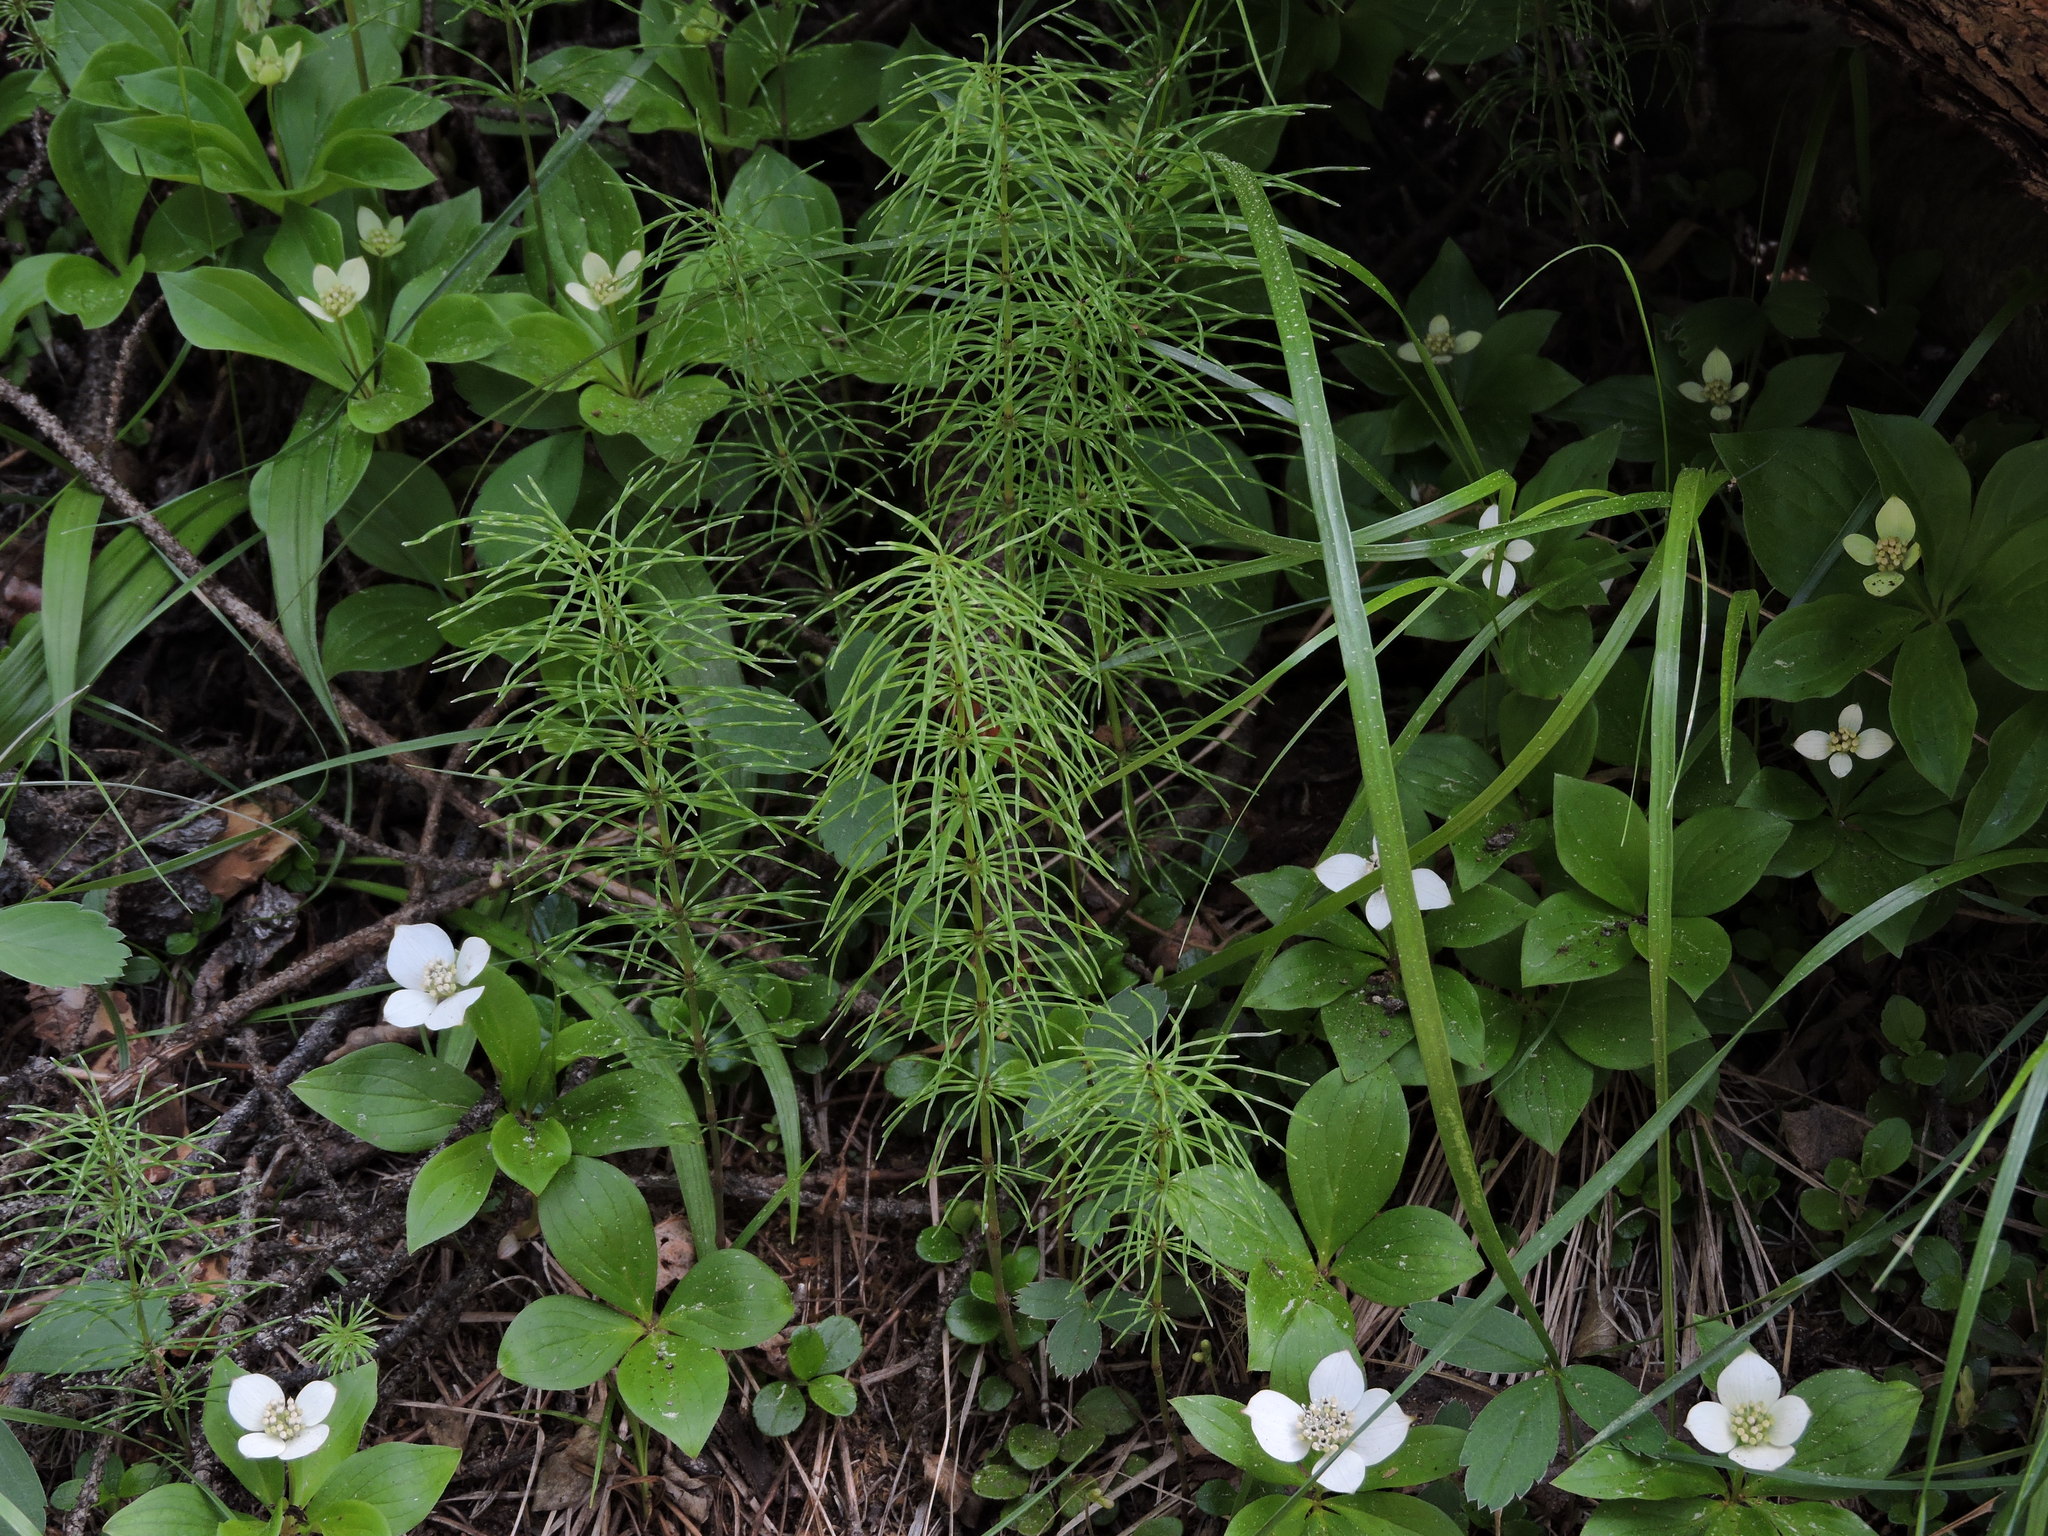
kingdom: Plantae
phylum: Tracheophyta
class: Polypodiopsida
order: Equisetales
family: Equisetaceae
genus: Equisetum
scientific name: Equisetum pratense
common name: Meadow horsetail
